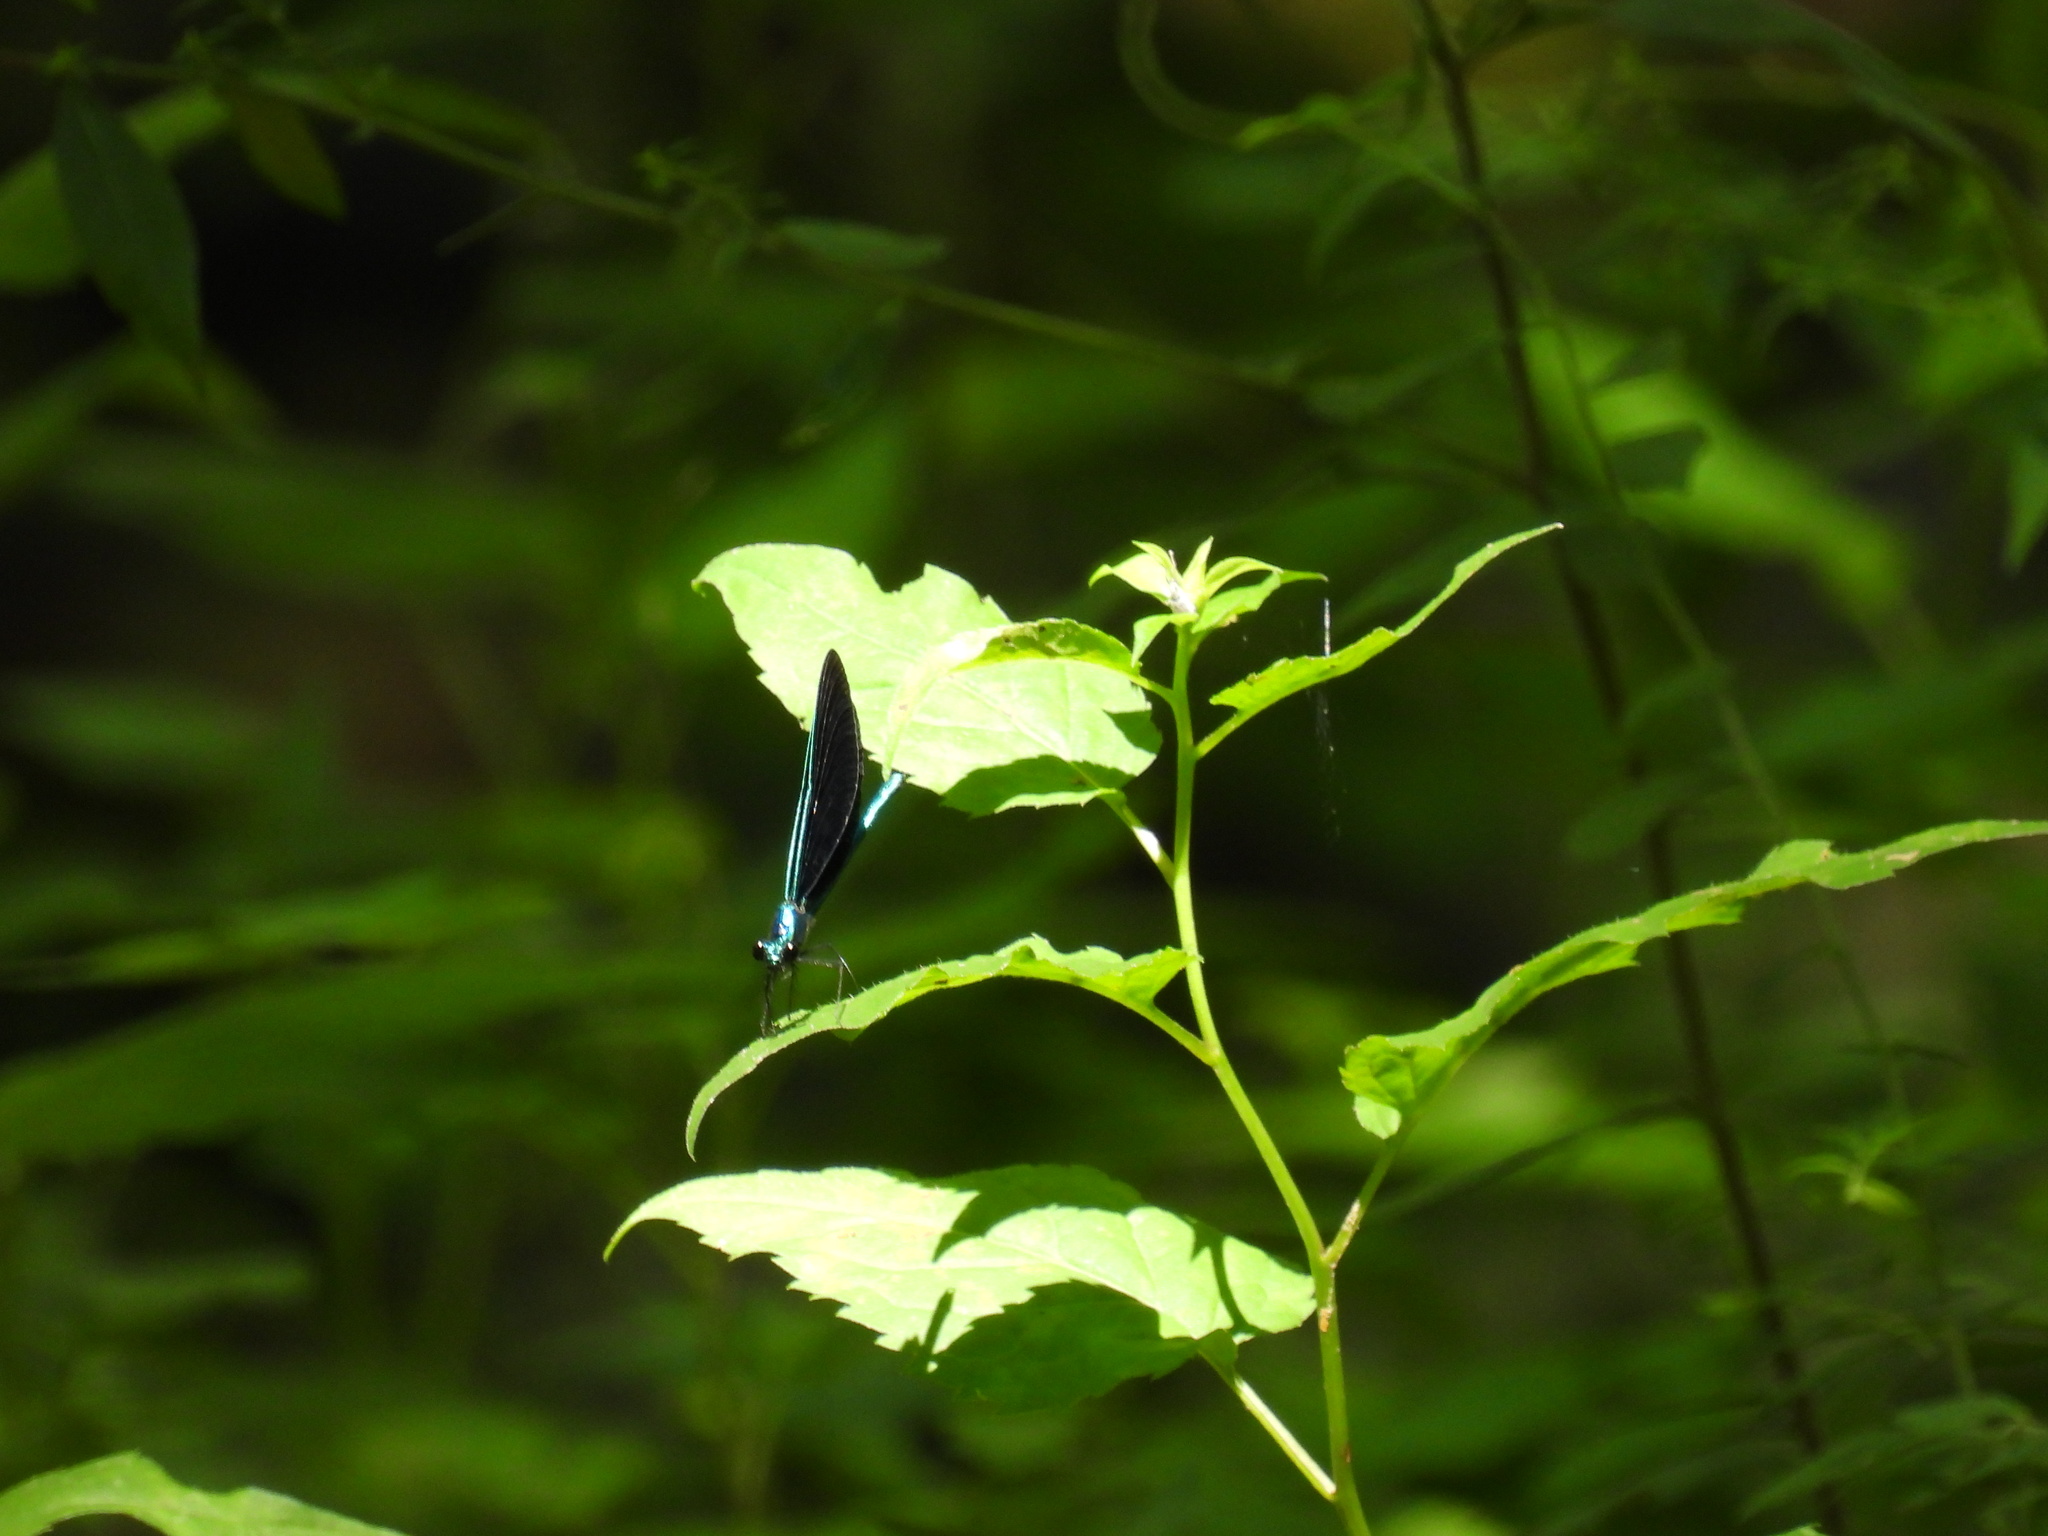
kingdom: Animalia
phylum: Arthropoda
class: Insecta
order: Odonata
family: Calopterygidae
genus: Calopteryx
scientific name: Calopteryx maculata
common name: Ebony jewelwing
